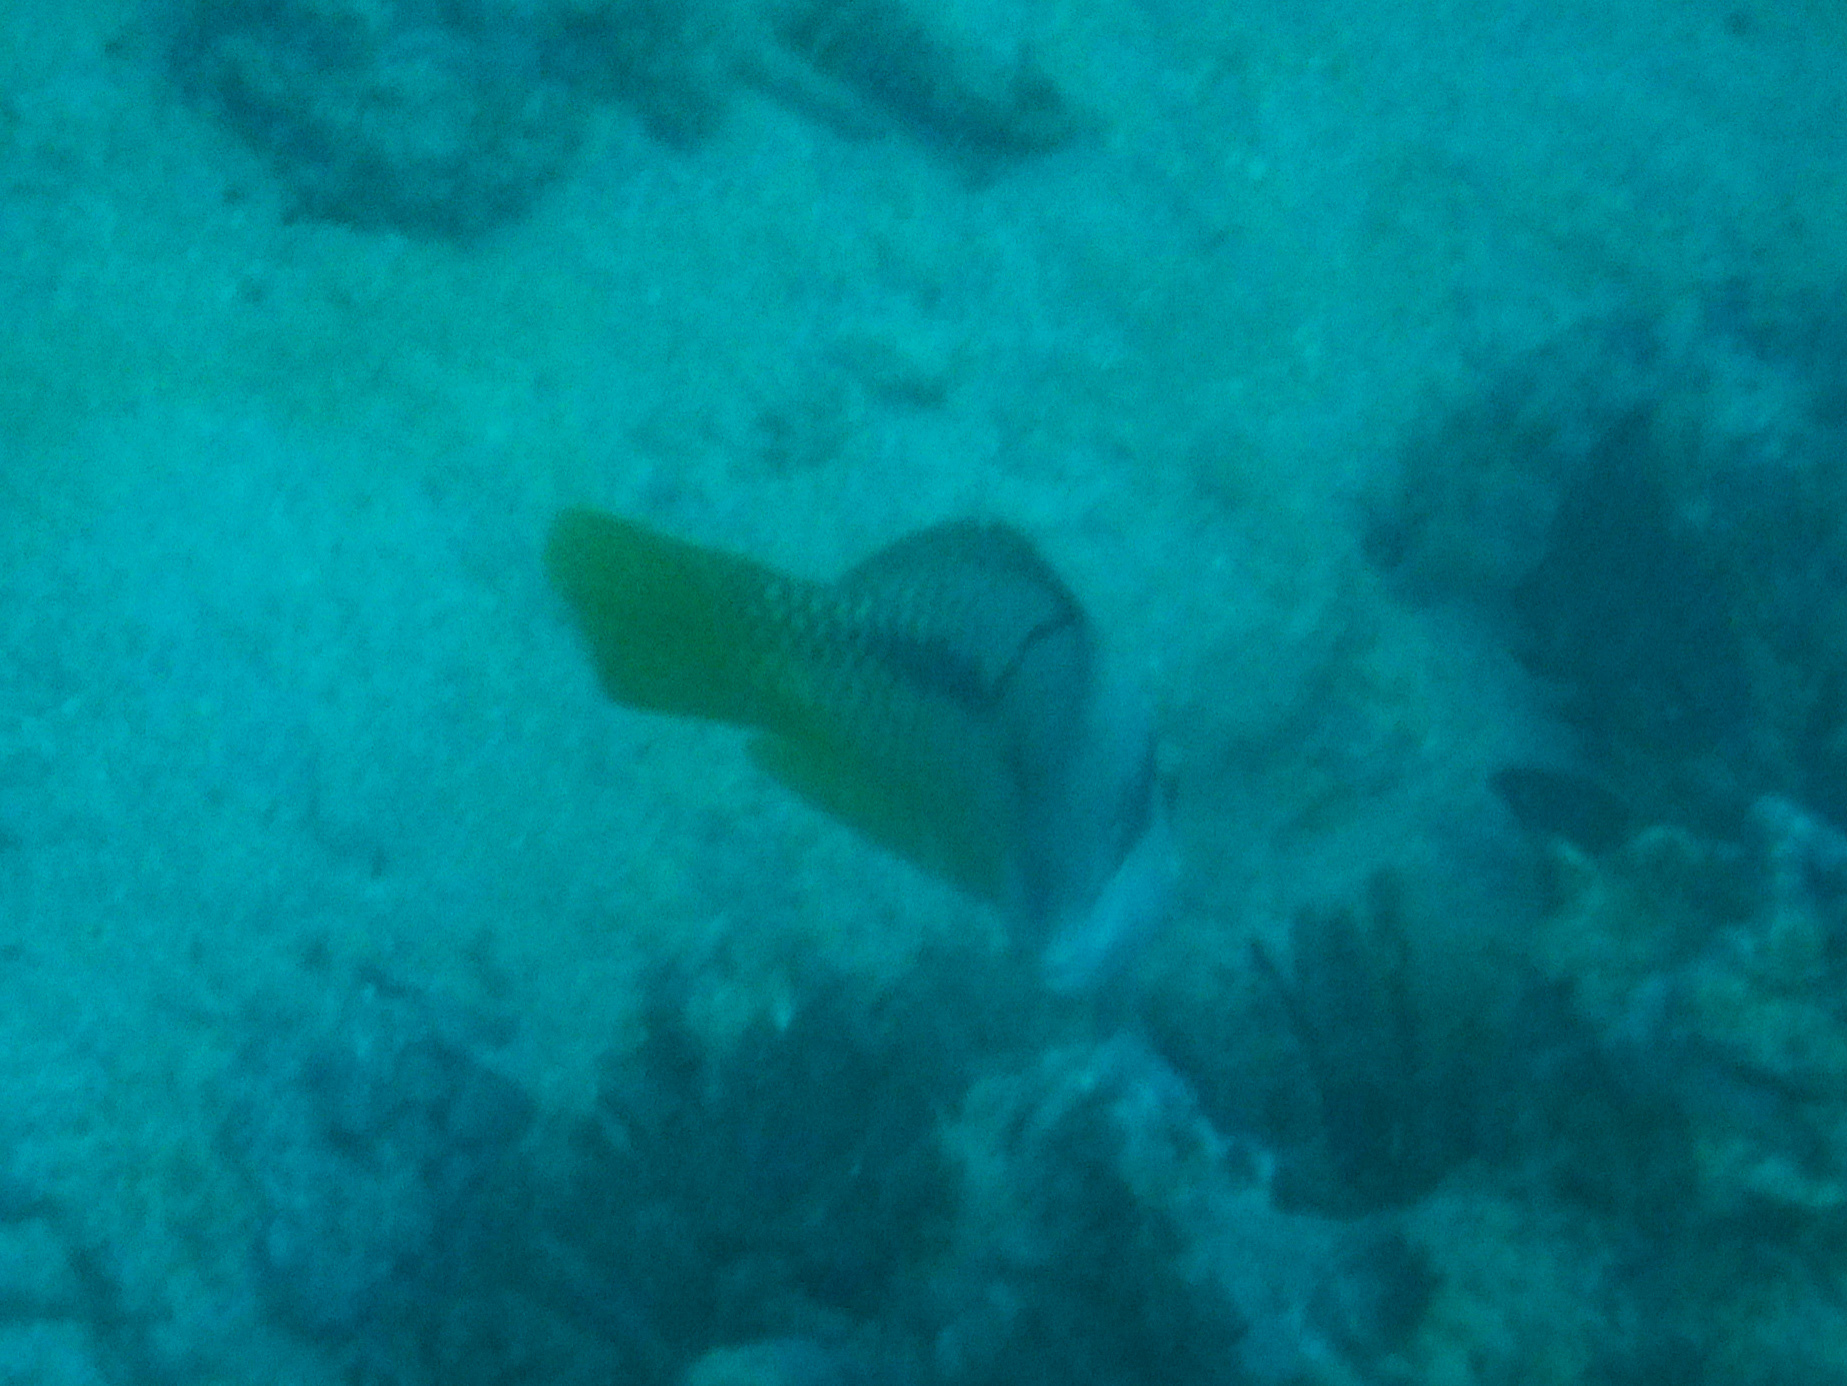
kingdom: Animalia
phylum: Chordata
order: Perciformes
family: Labridae
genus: Halichoeres
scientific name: Halichoeres nicholsi
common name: Spinster wrasse
